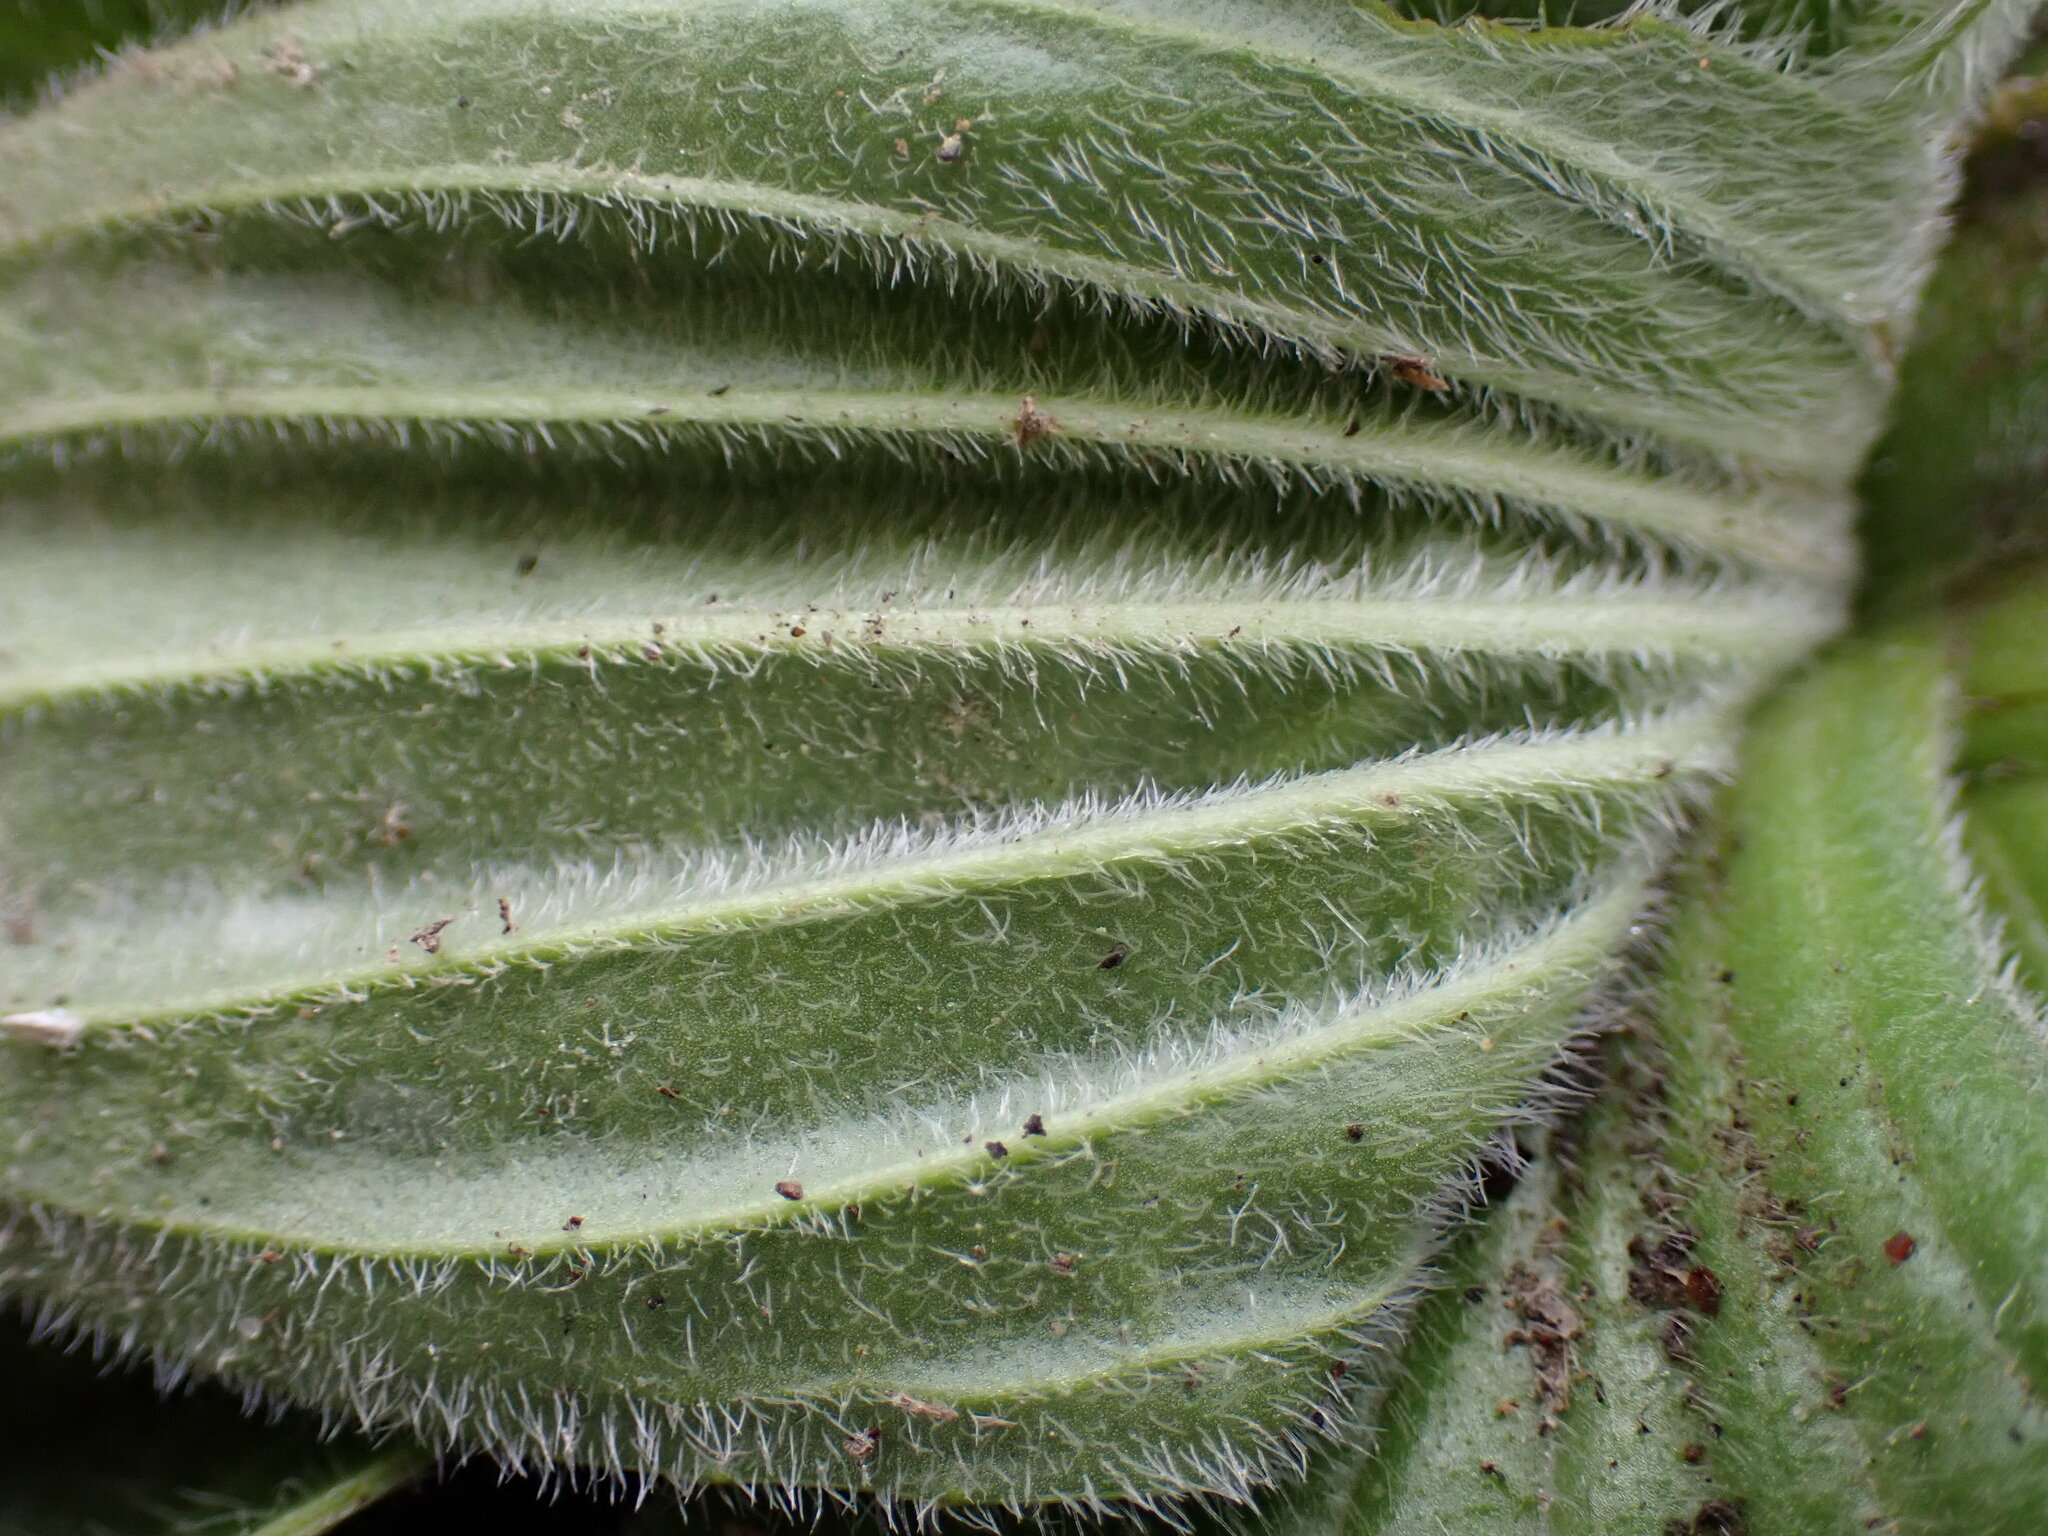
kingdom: Plantae
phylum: Tracheophyta
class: Magnoliopsida
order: Lamiales
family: Plantaginaceae
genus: Plantago
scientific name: Plantago media
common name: Hoary plantain
